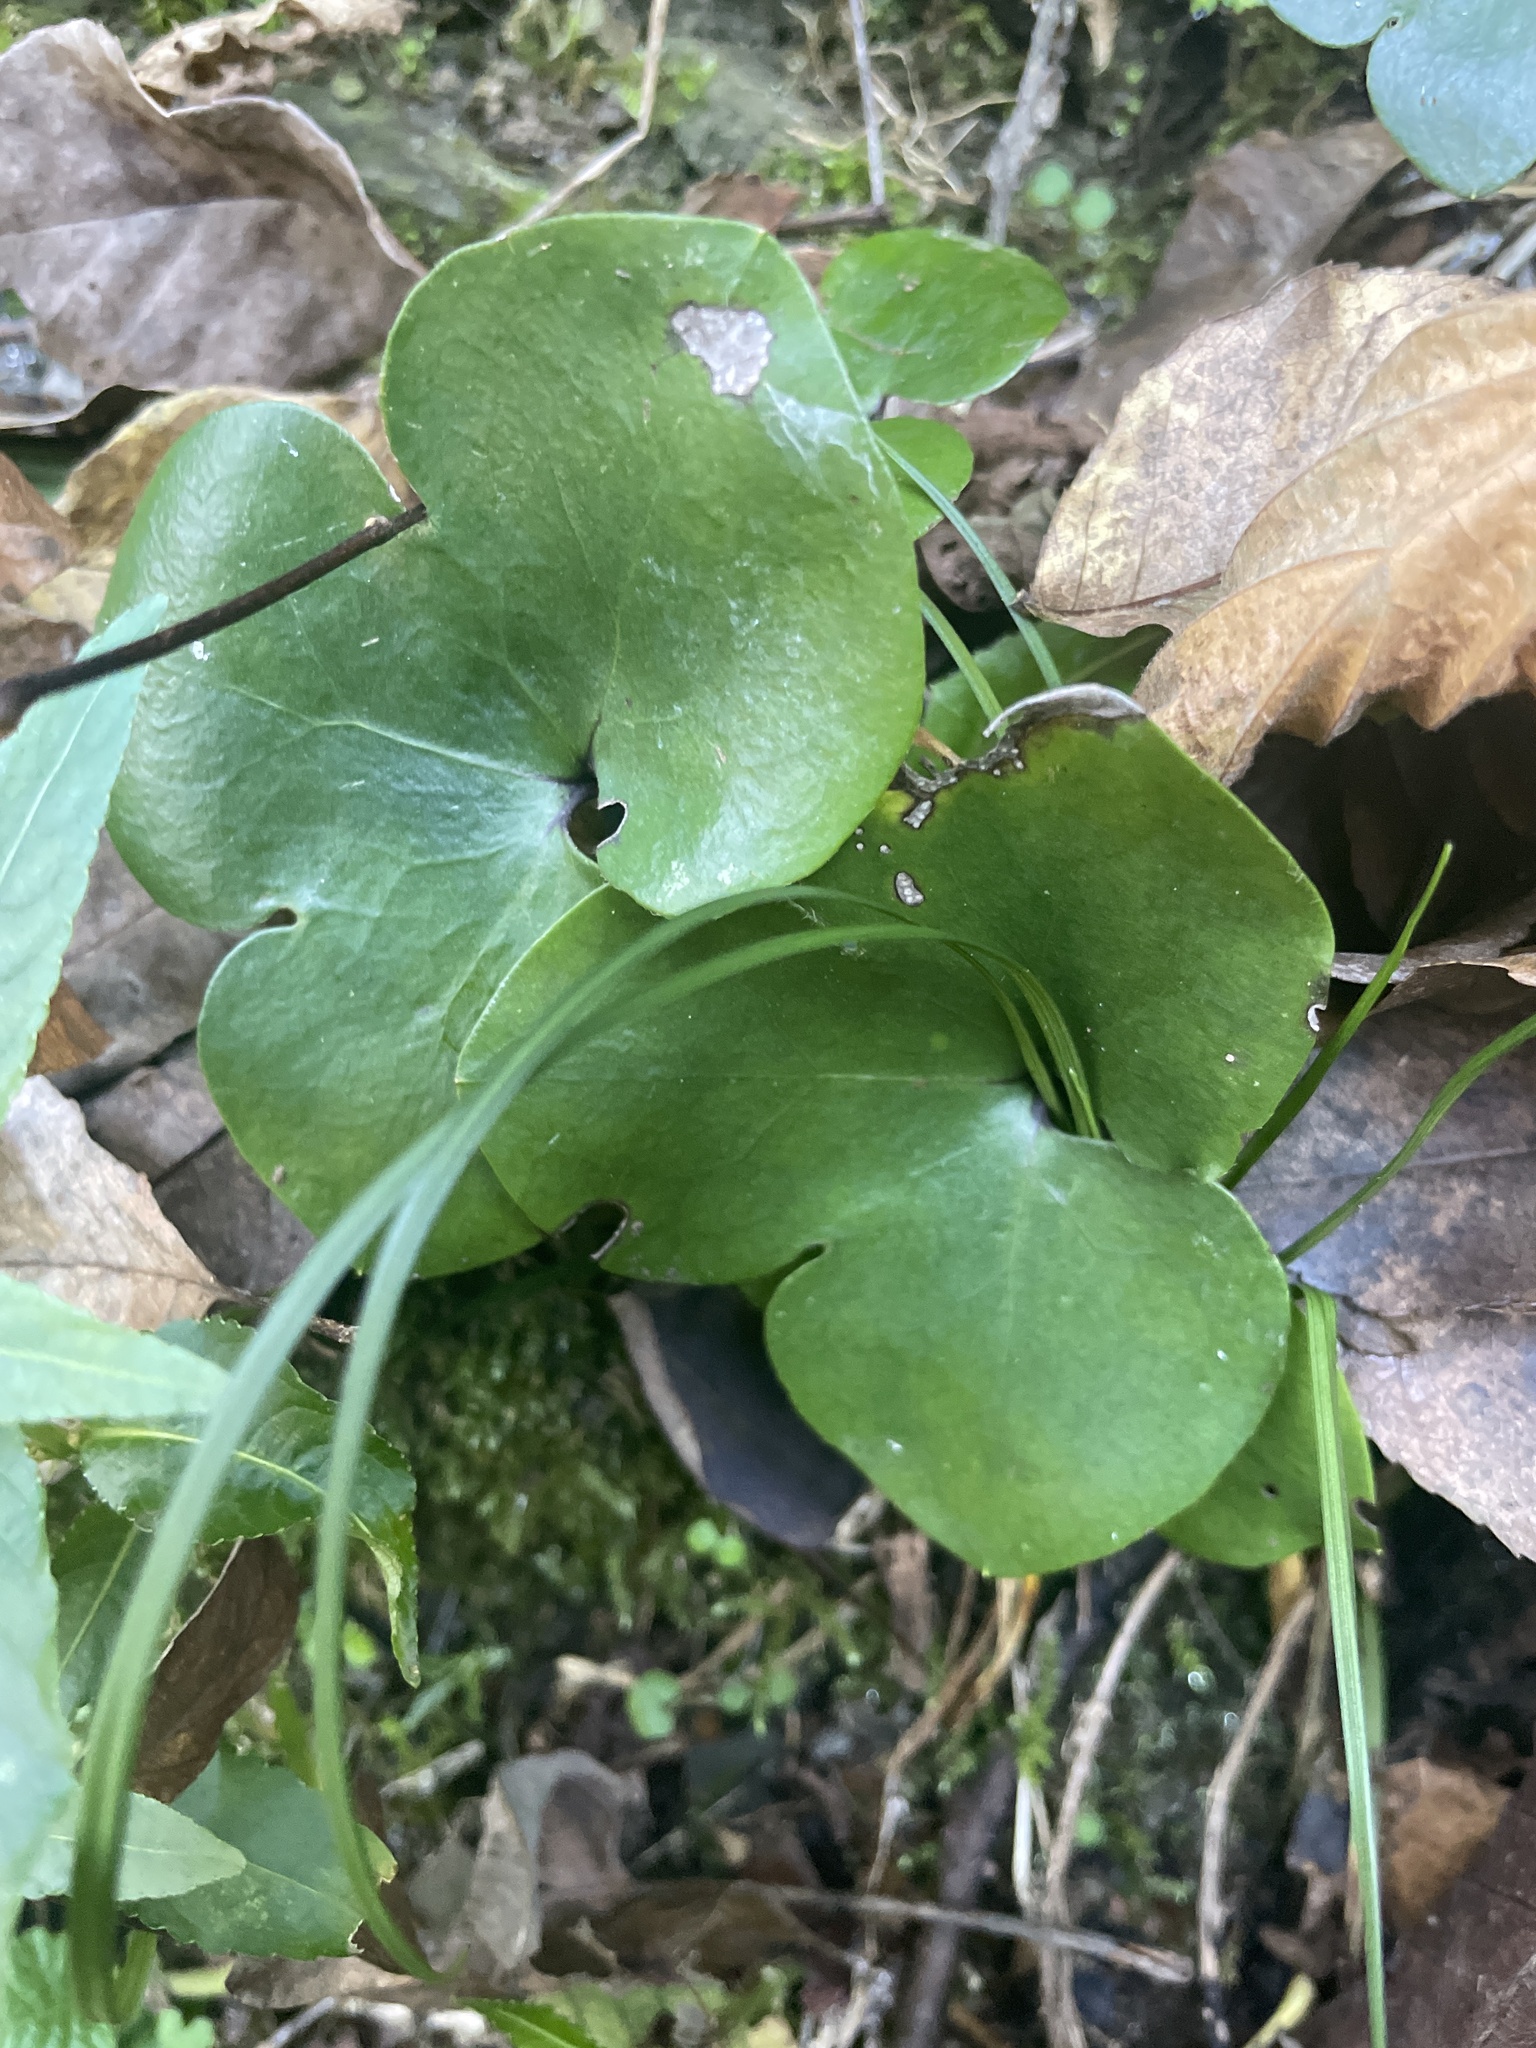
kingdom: Plantae
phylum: Tracheophyta
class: Magnoliopsida
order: Ranunculales
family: Ranunculaceae
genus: Hepatica
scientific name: Hepatica nobilis
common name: Liverleaf
